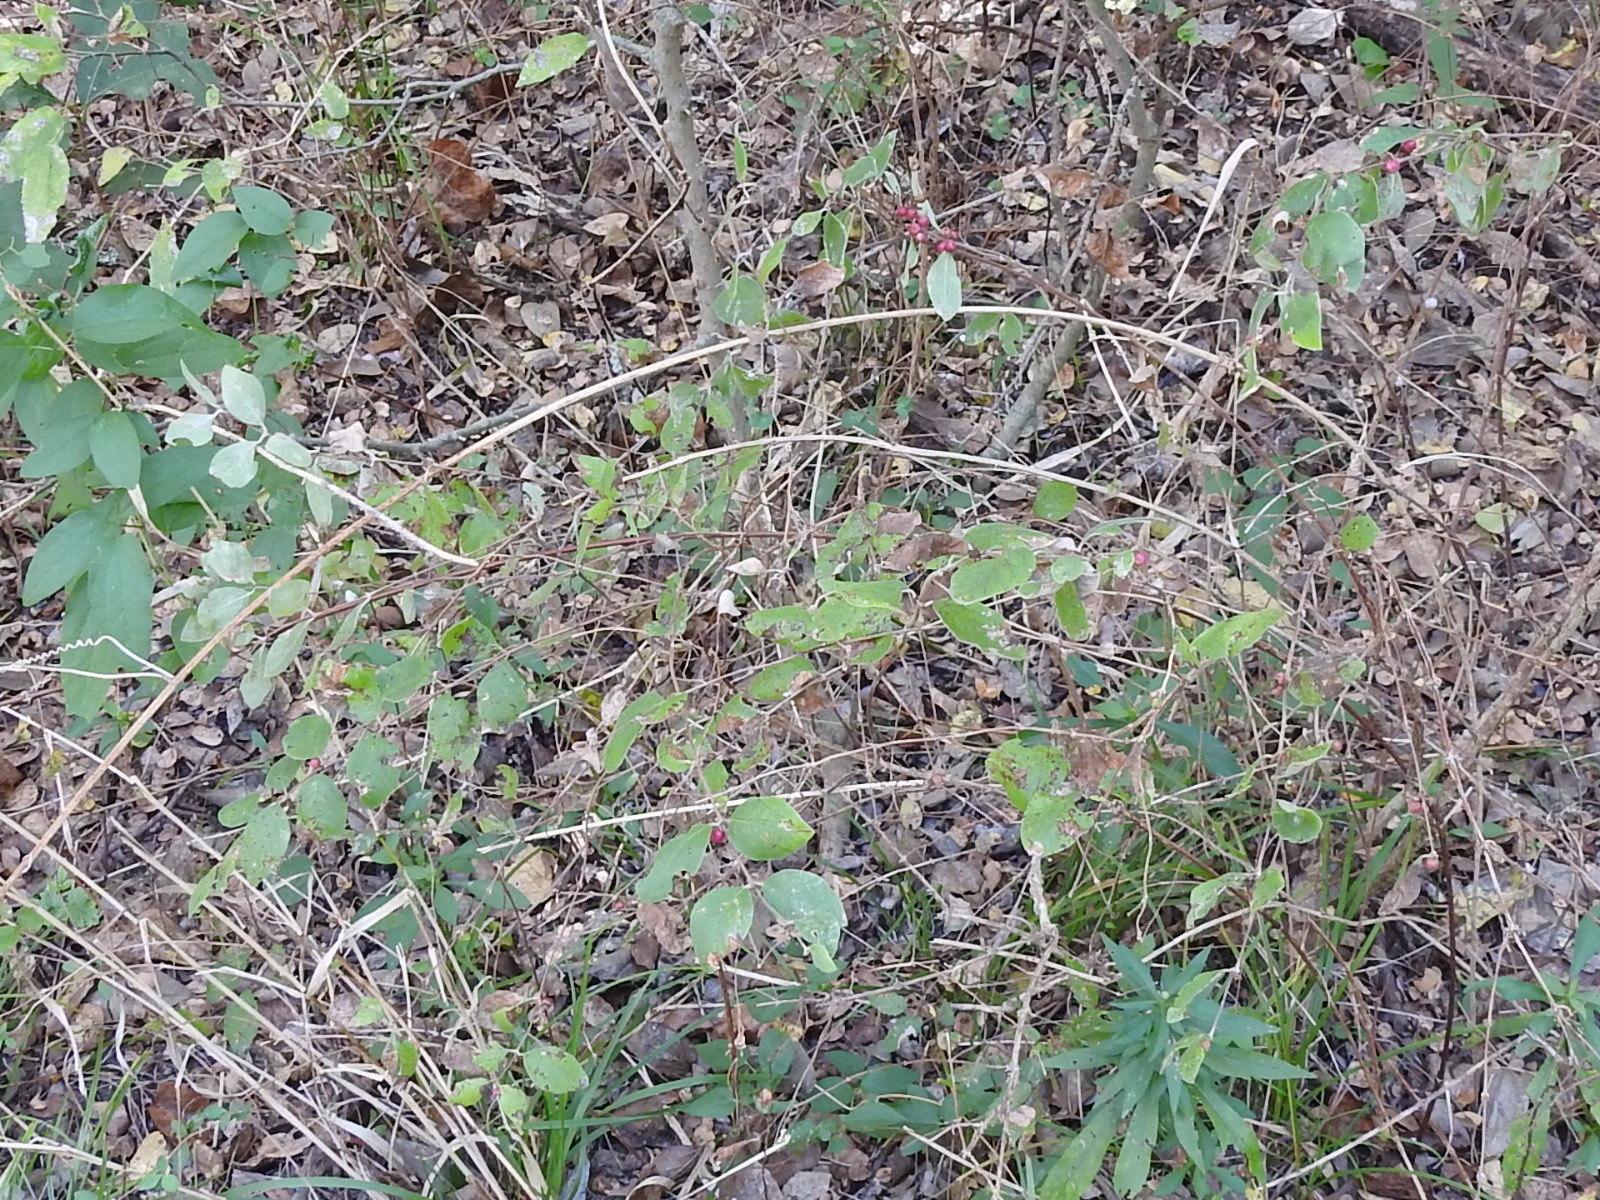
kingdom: Plantae
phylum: Tracheophyta
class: Magnoliopsida
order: Dipsacales
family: Caprifoliaceae
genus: Symphoricarpos
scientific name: Symphoricarpos orbiculatus
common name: Coralberry
